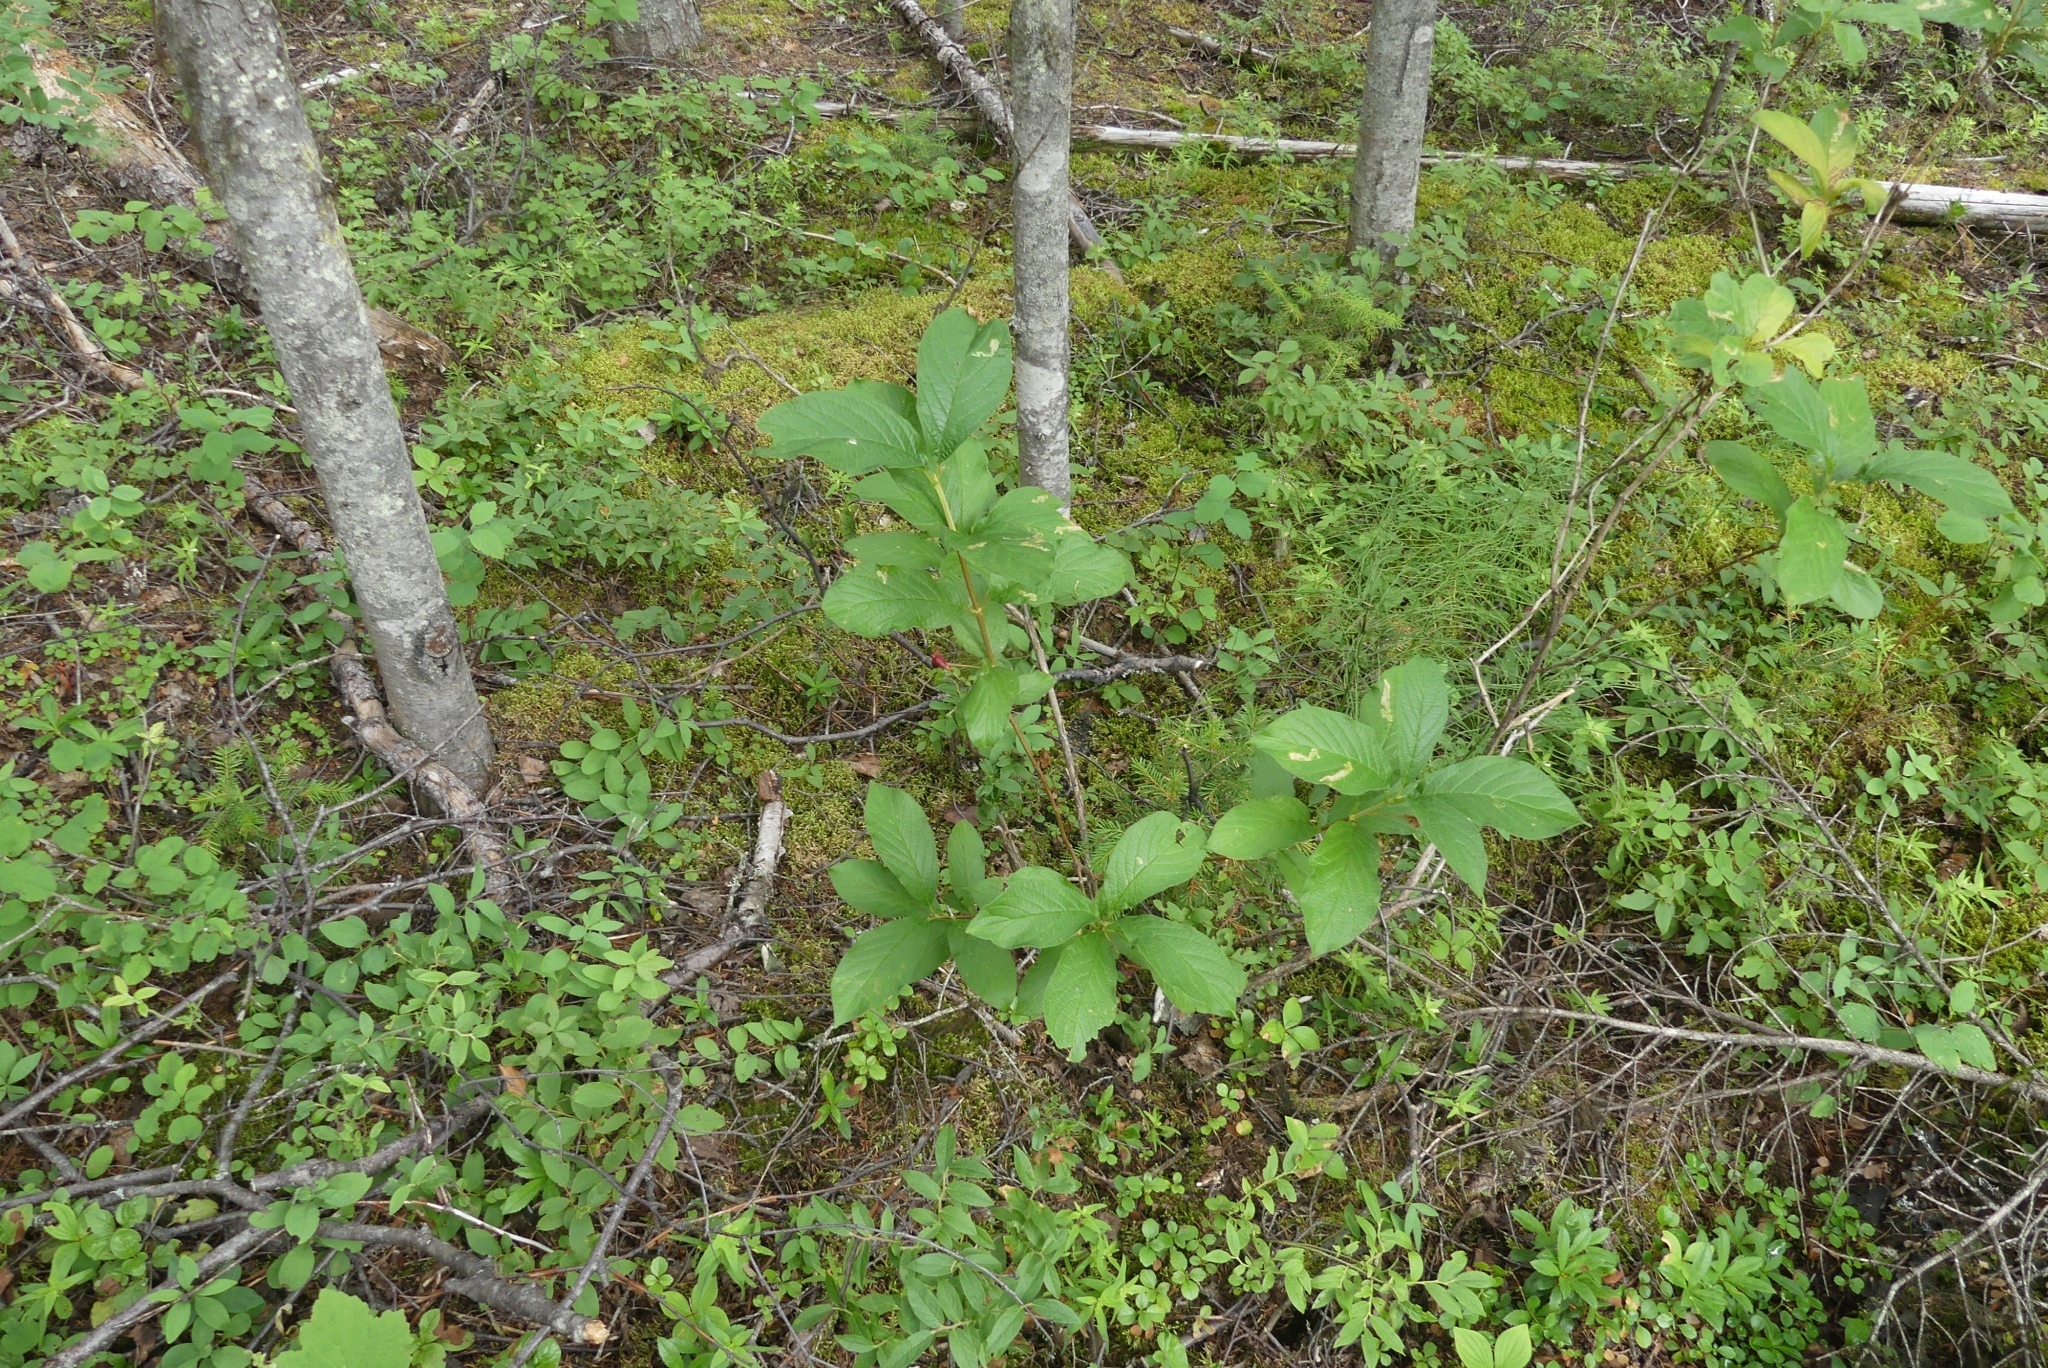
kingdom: Plantae
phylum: Tracheophyta
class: Magnoliopsida
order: Dipsacales
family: Caprifoliaceae
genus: Lonicera
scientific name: Lonicera involucrata
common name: Californian honeysuckle
